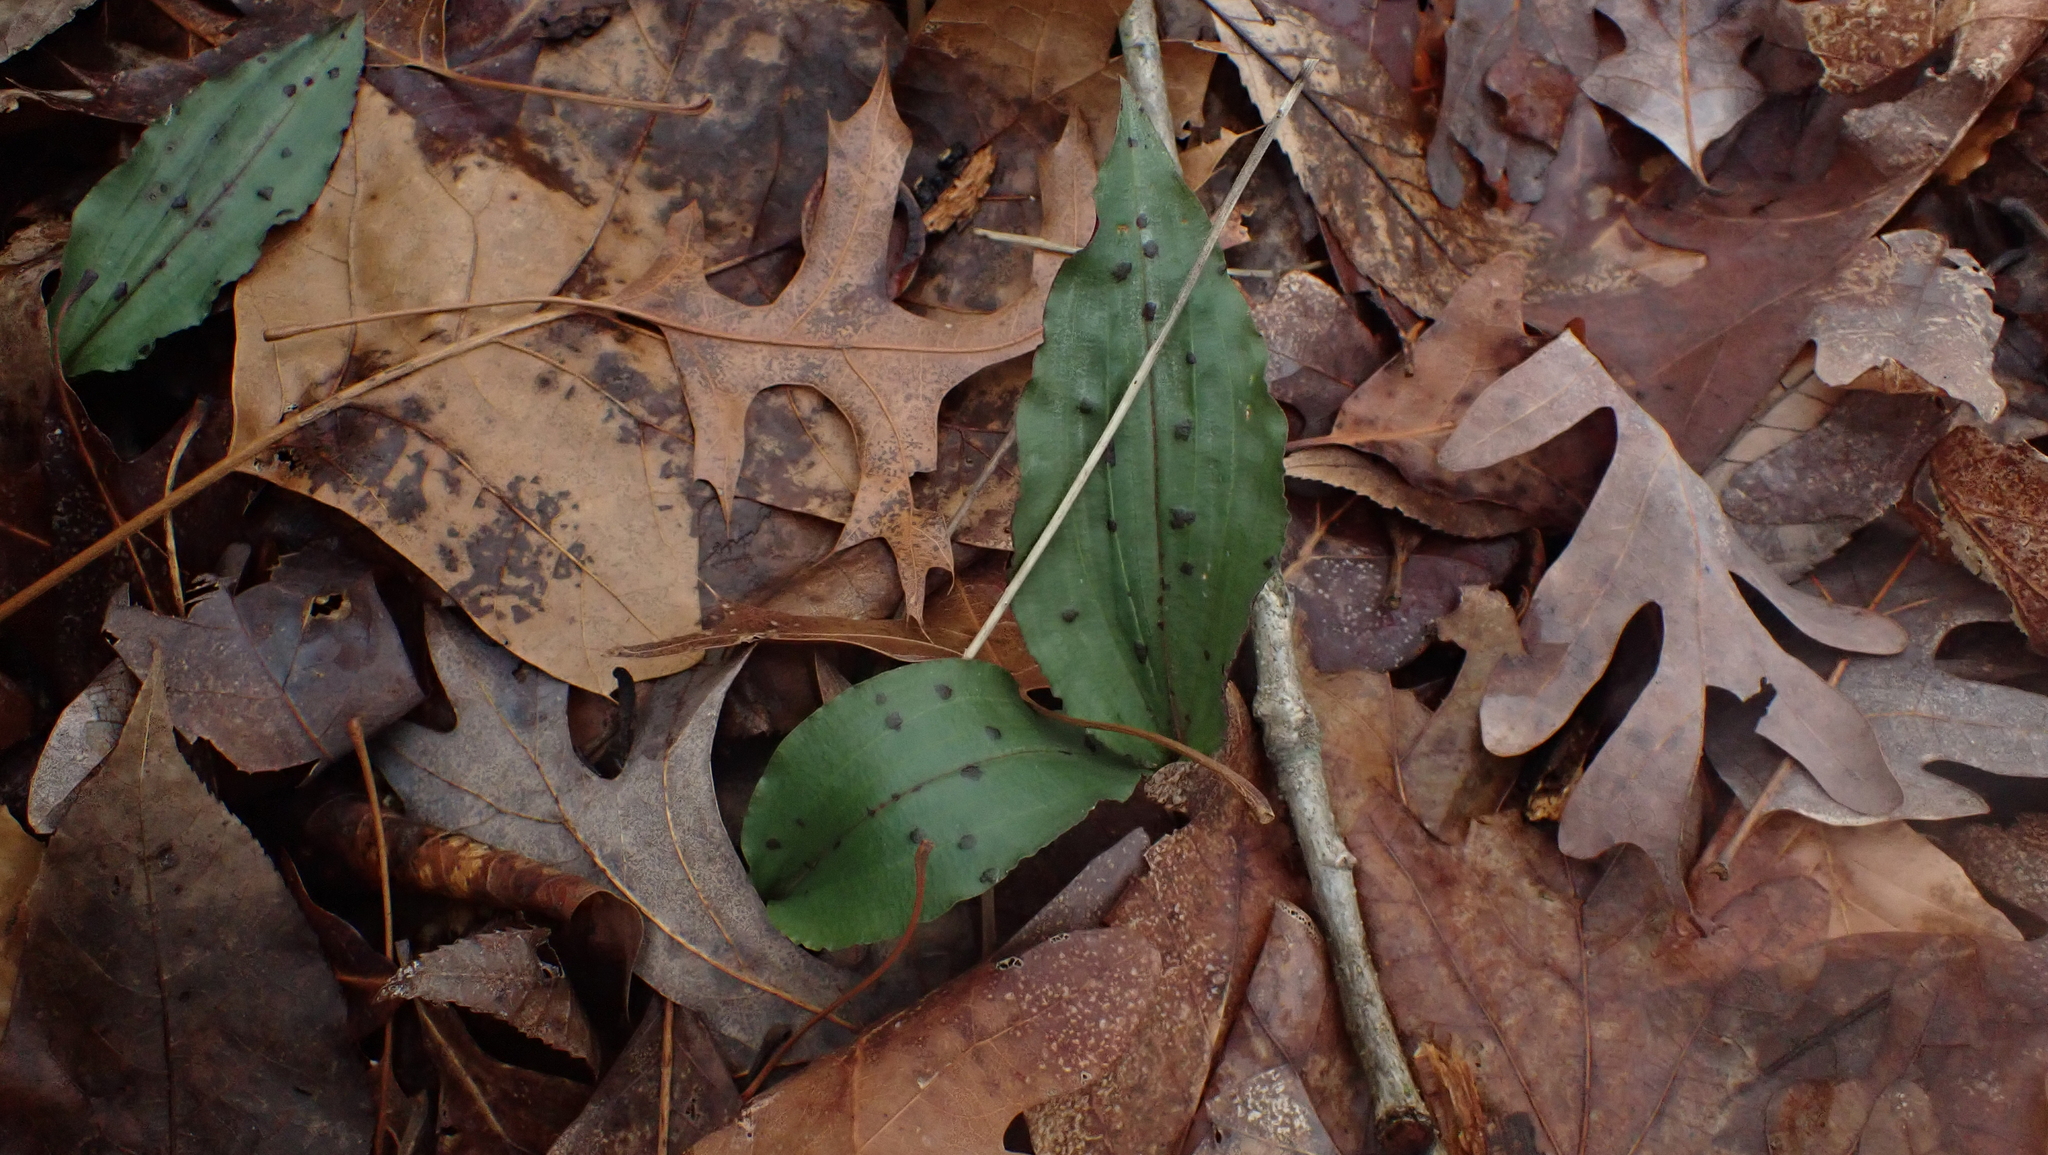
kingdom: Plantae
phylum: Tracheophyta
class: Liliopsida
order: Asparagales
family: Orchidaceae
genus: Tipularia
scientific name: Tipularia discolor
